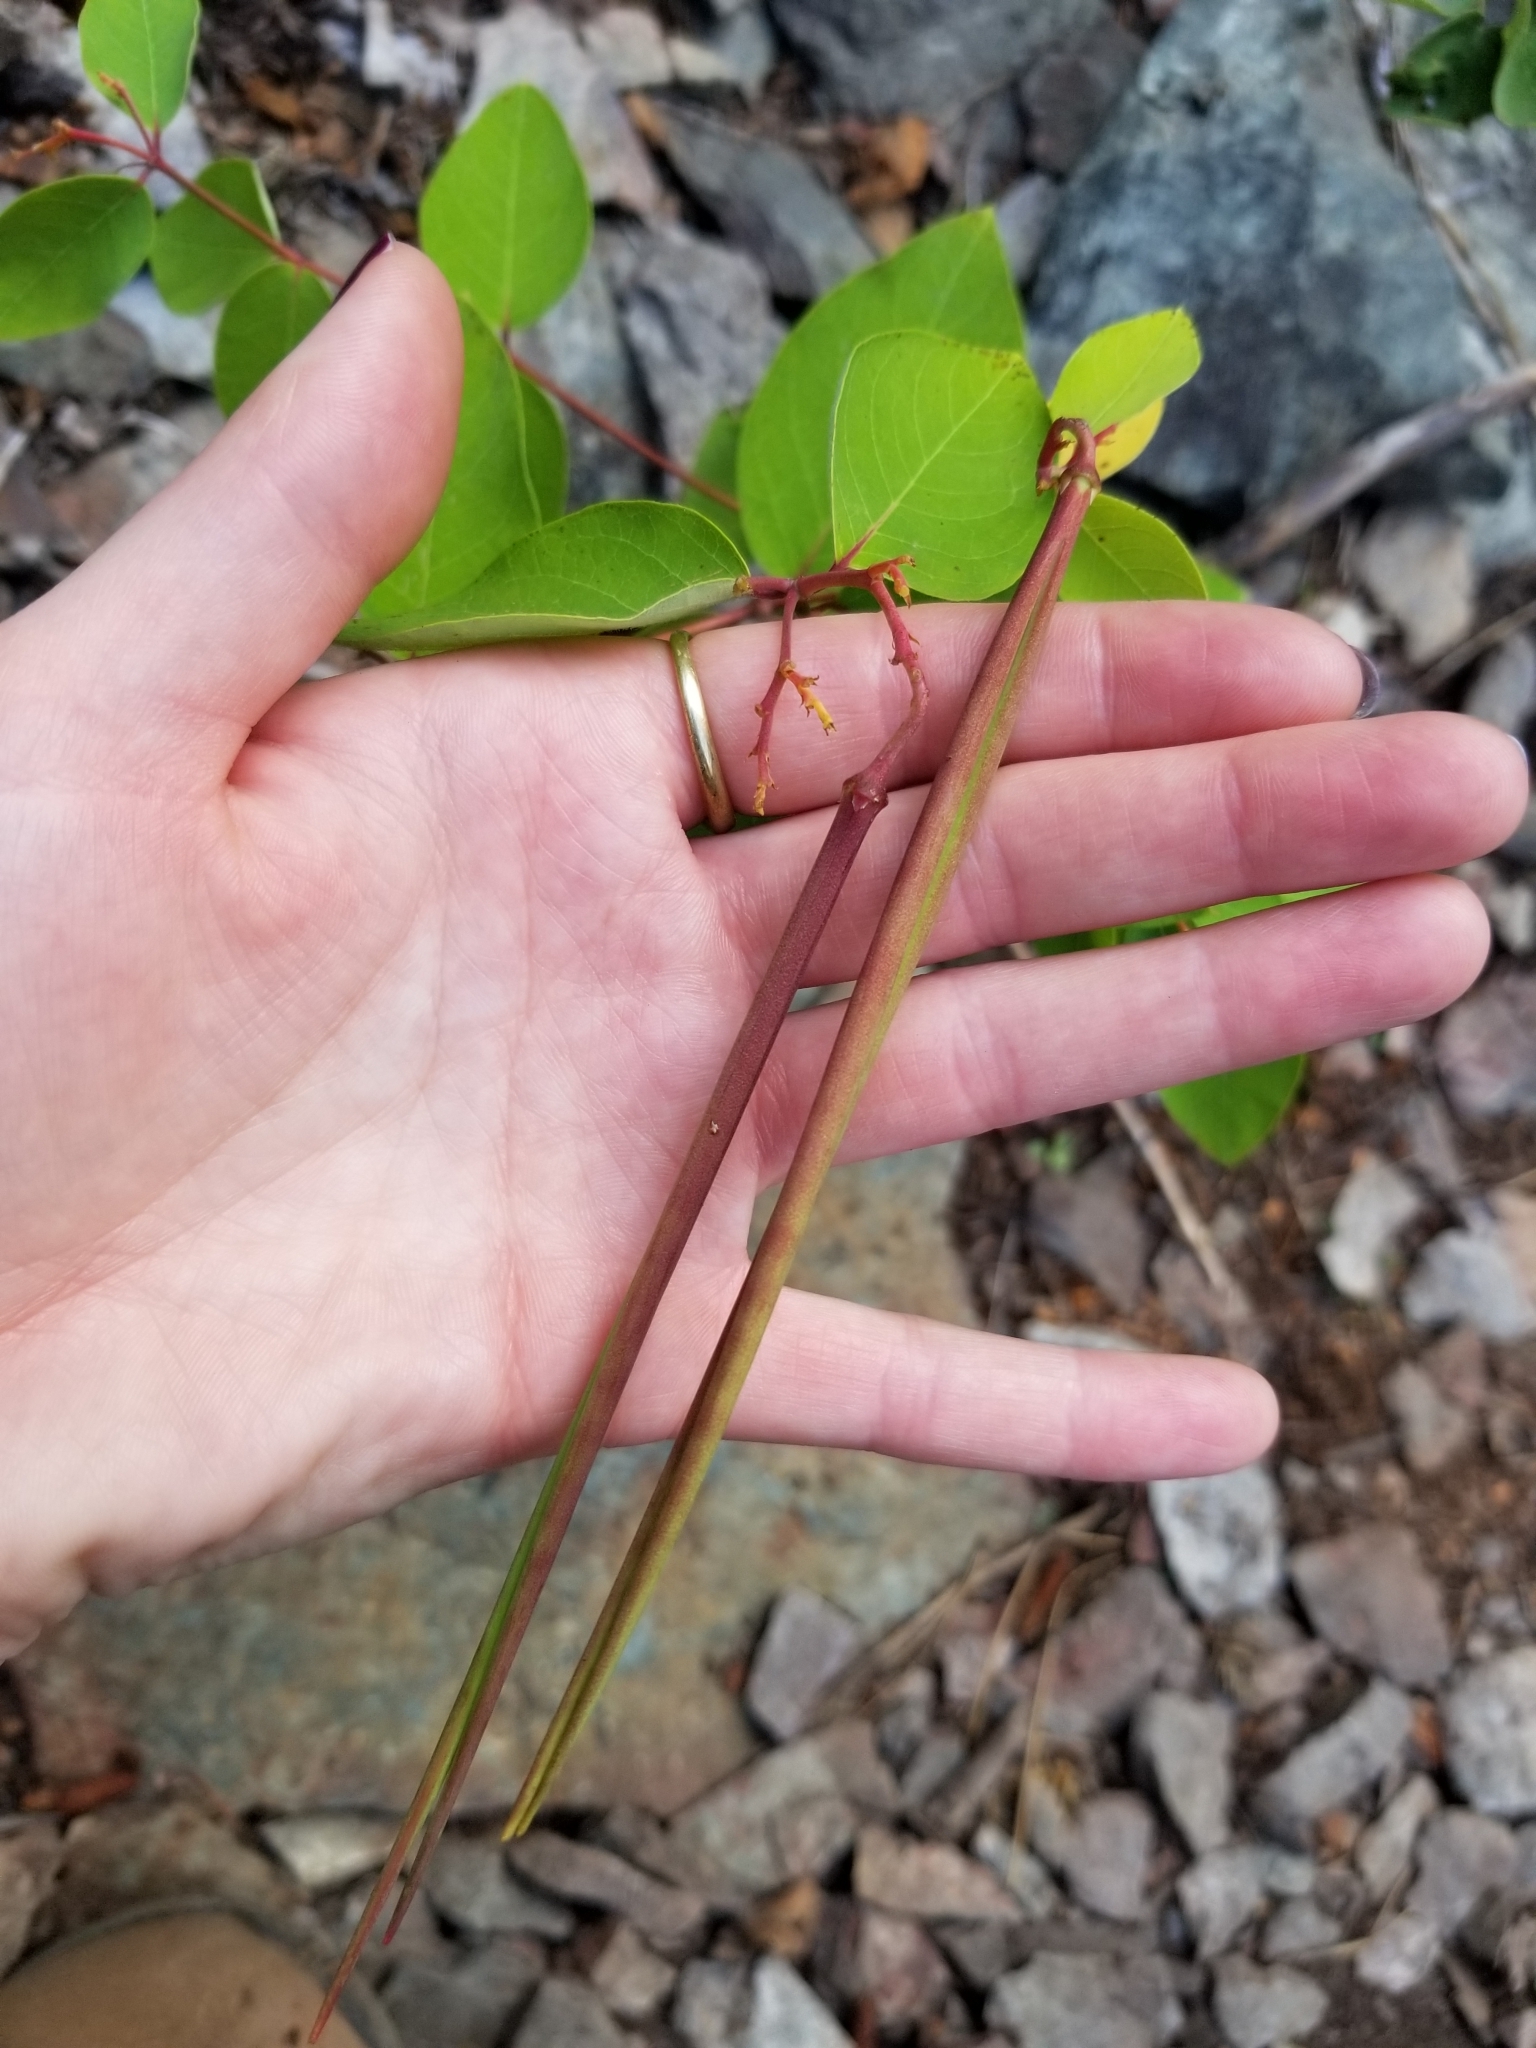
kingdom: Plantae
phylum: Tracheophyta
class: Magnoliopsida
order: Gentianales
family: Apocynaceae
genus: Apocynum
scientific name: Apocynum androsaemifolium
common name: Spreading dogbane
